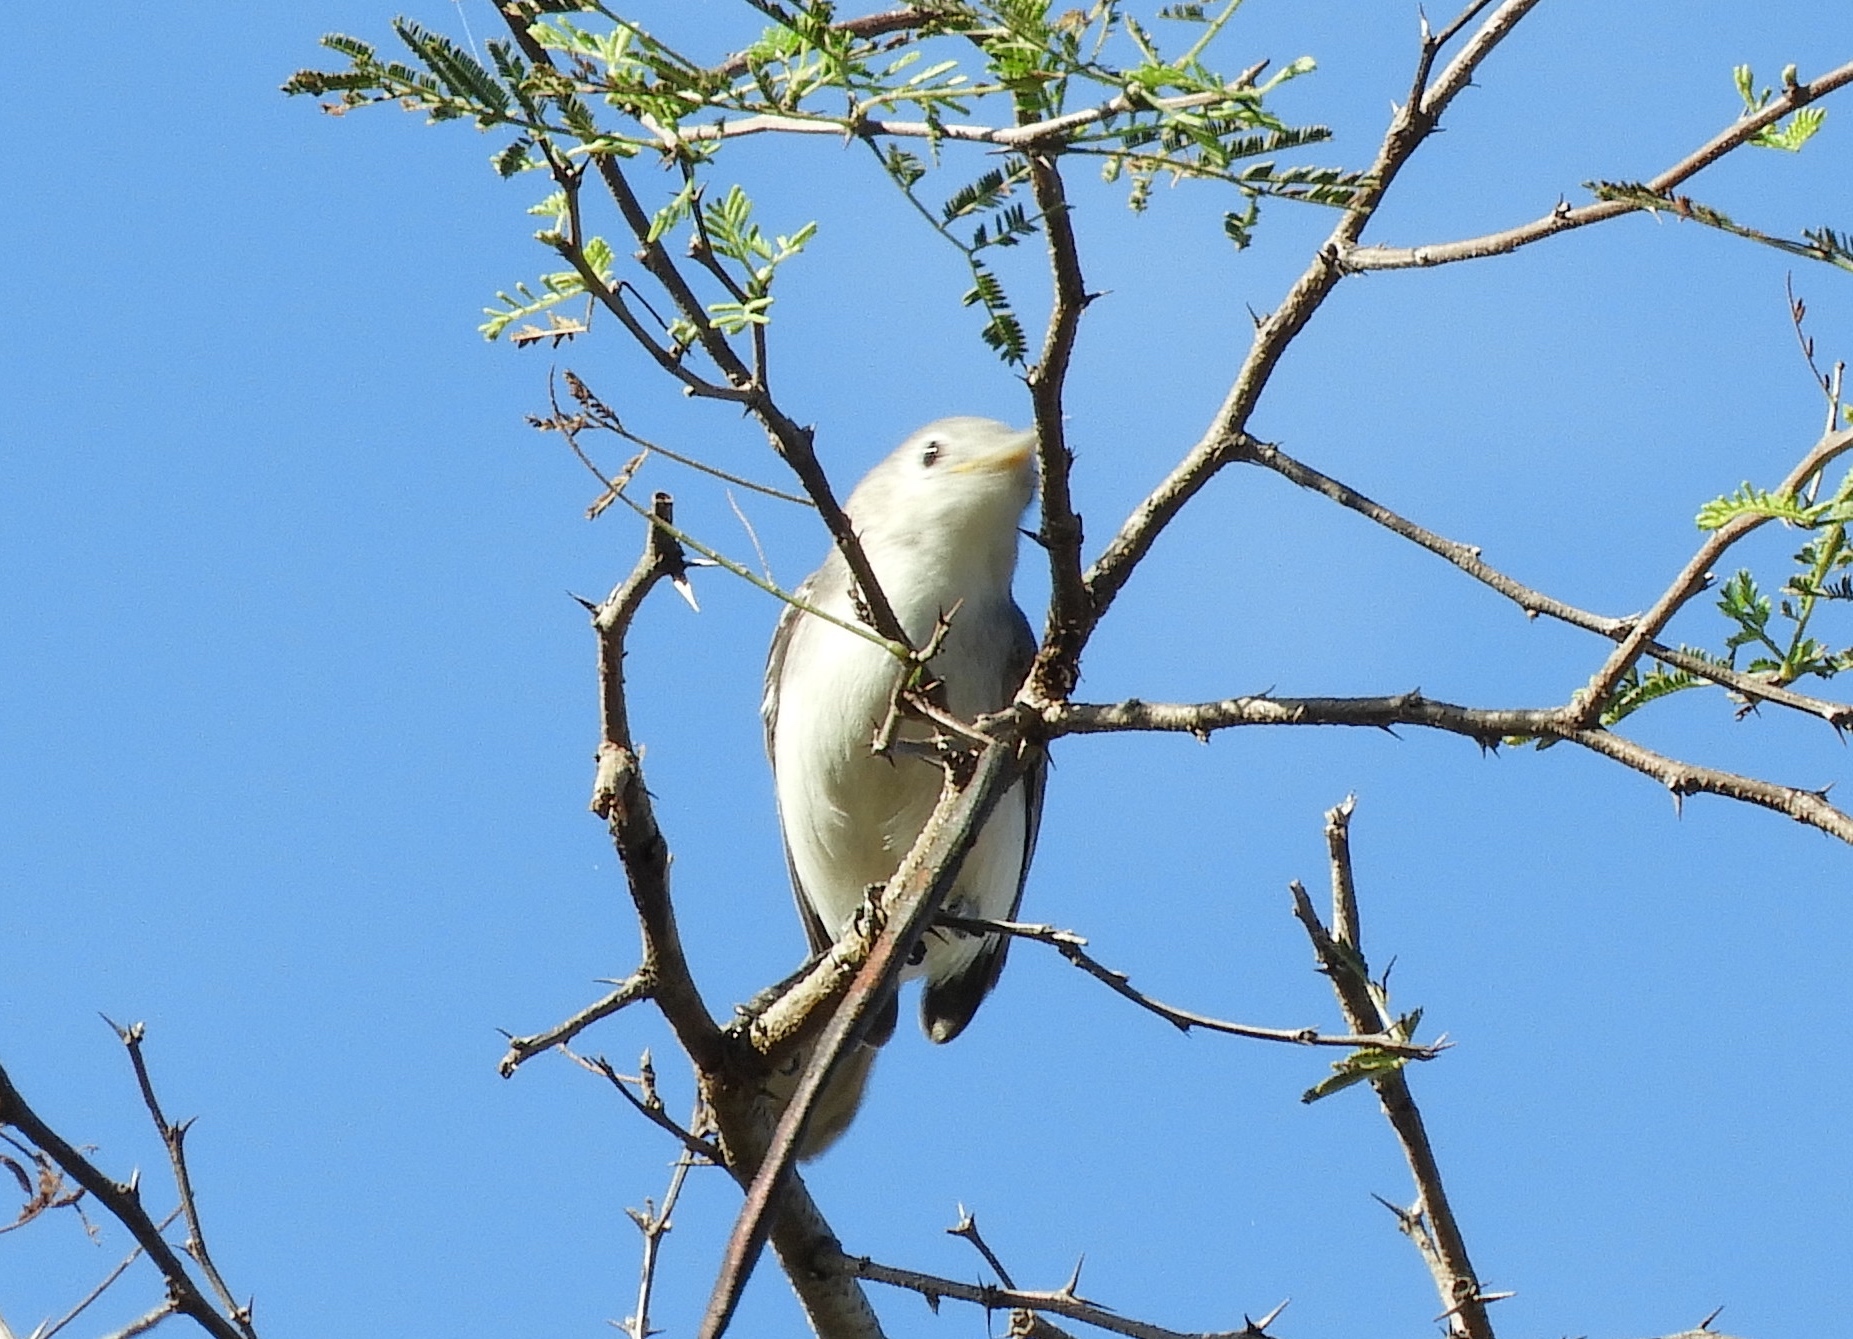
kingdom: Animalia
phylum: Chordata
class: Aves
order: Passeriformes
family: Polioptilidae
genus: Polioptila
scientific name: Polioptila
